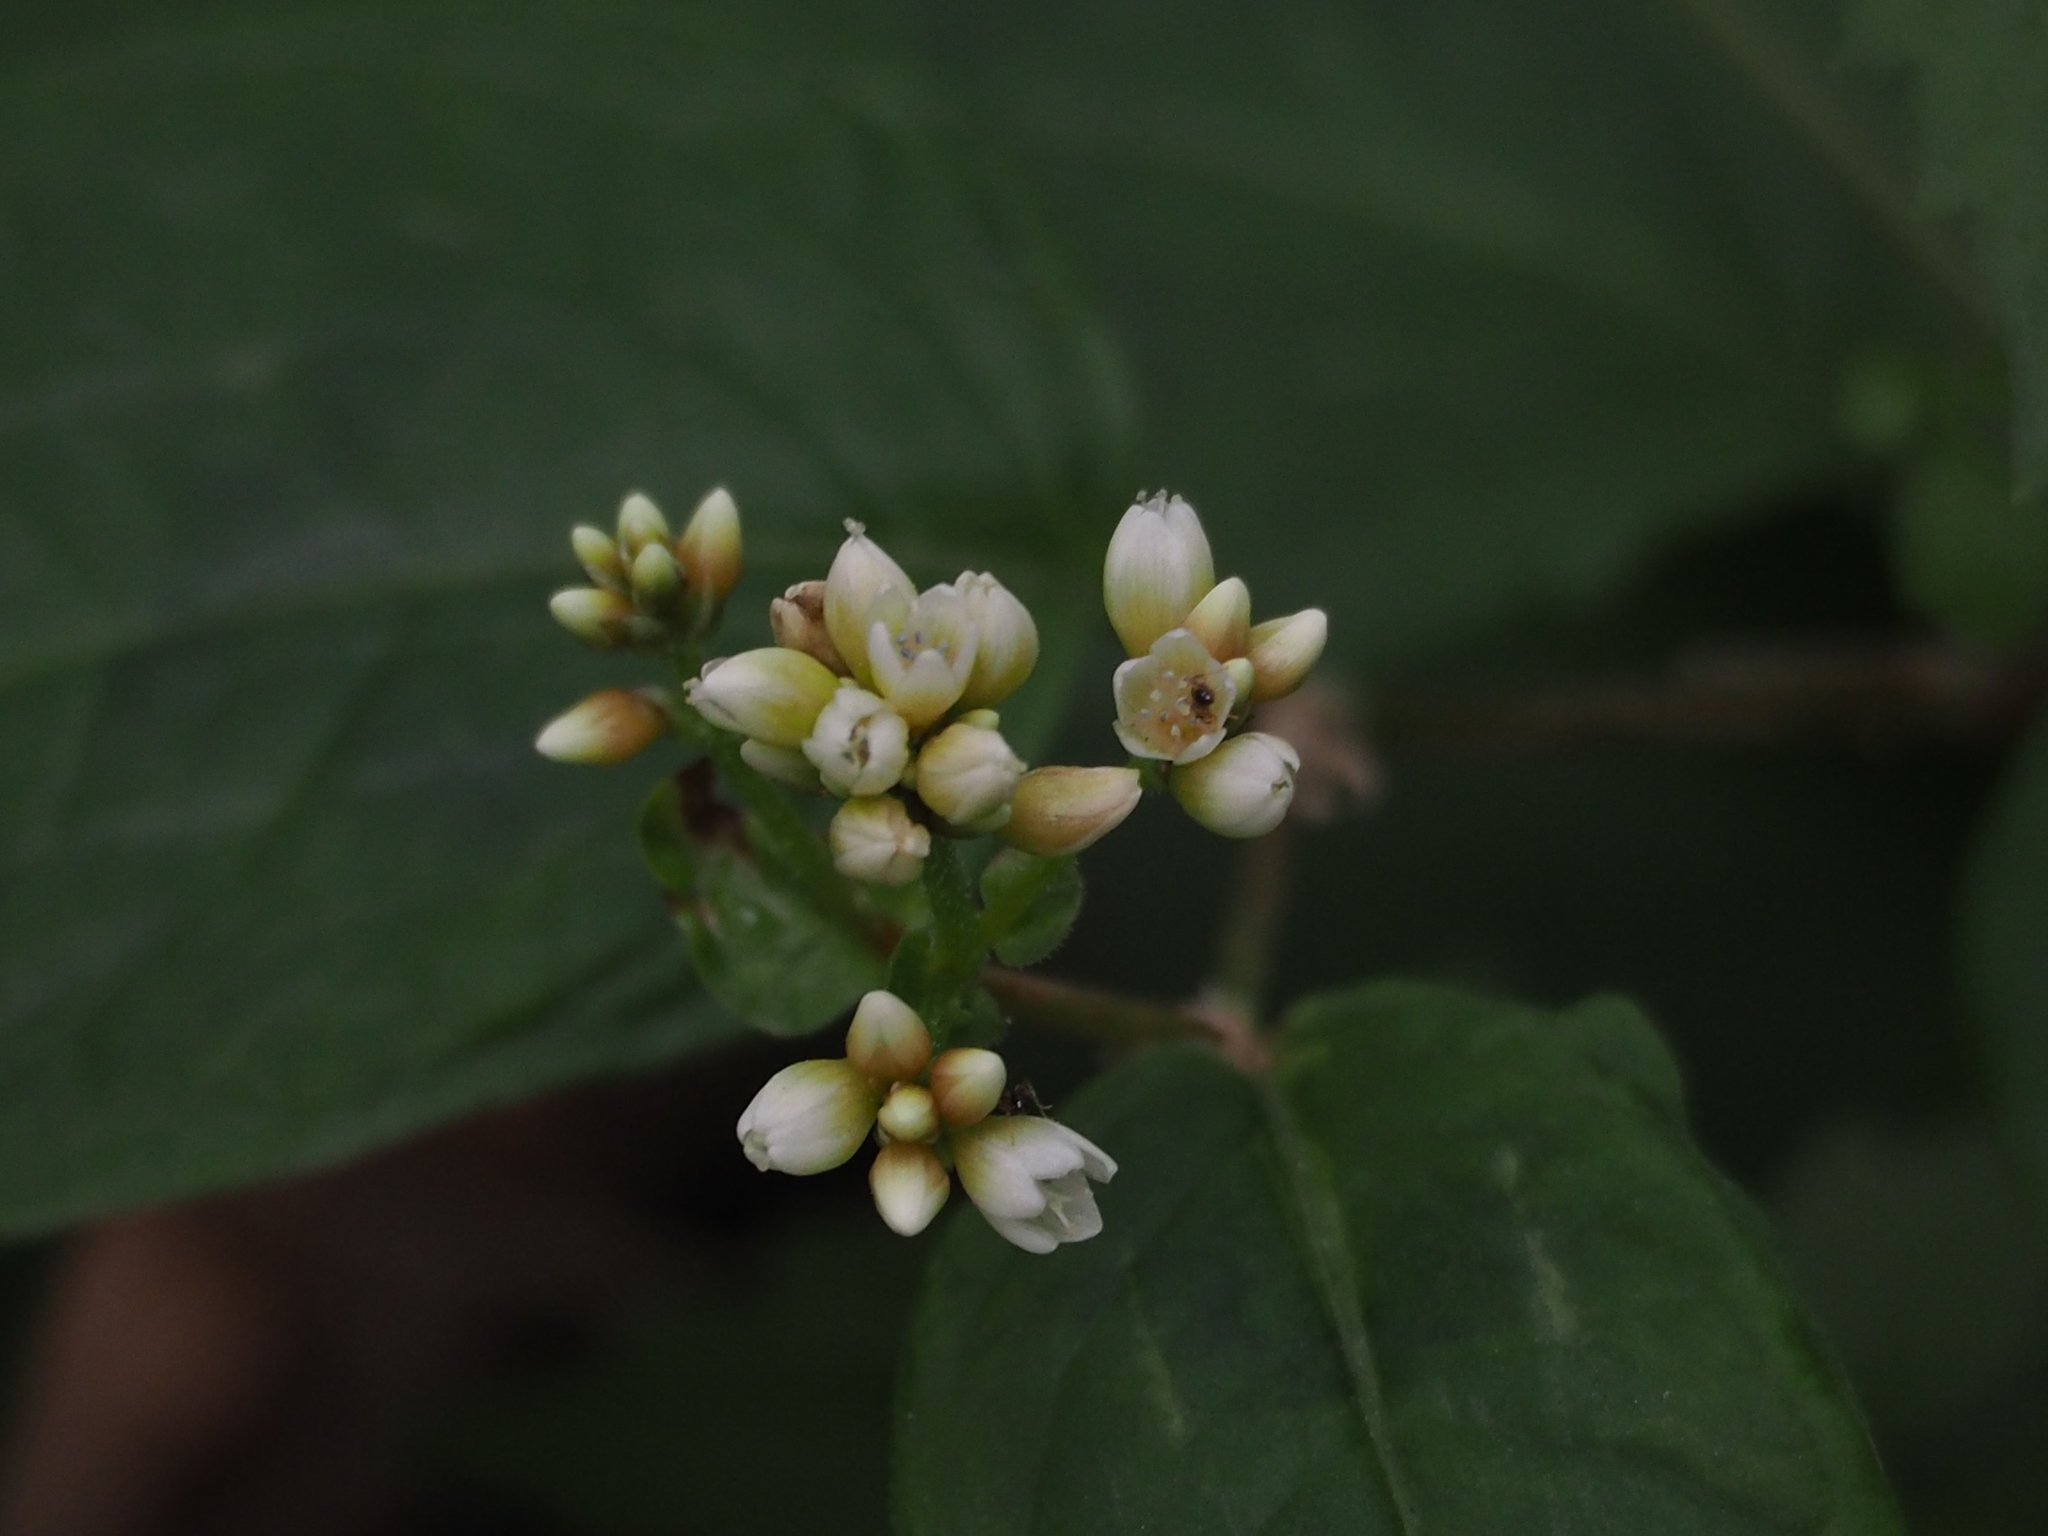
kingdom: Plantae
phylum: Tracheophyta
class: Magnoliopsida
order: Caryophyllales
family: Polygonaceae
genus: Persicaria
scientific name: Persicaria chinensis
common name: Chinese knotweed
